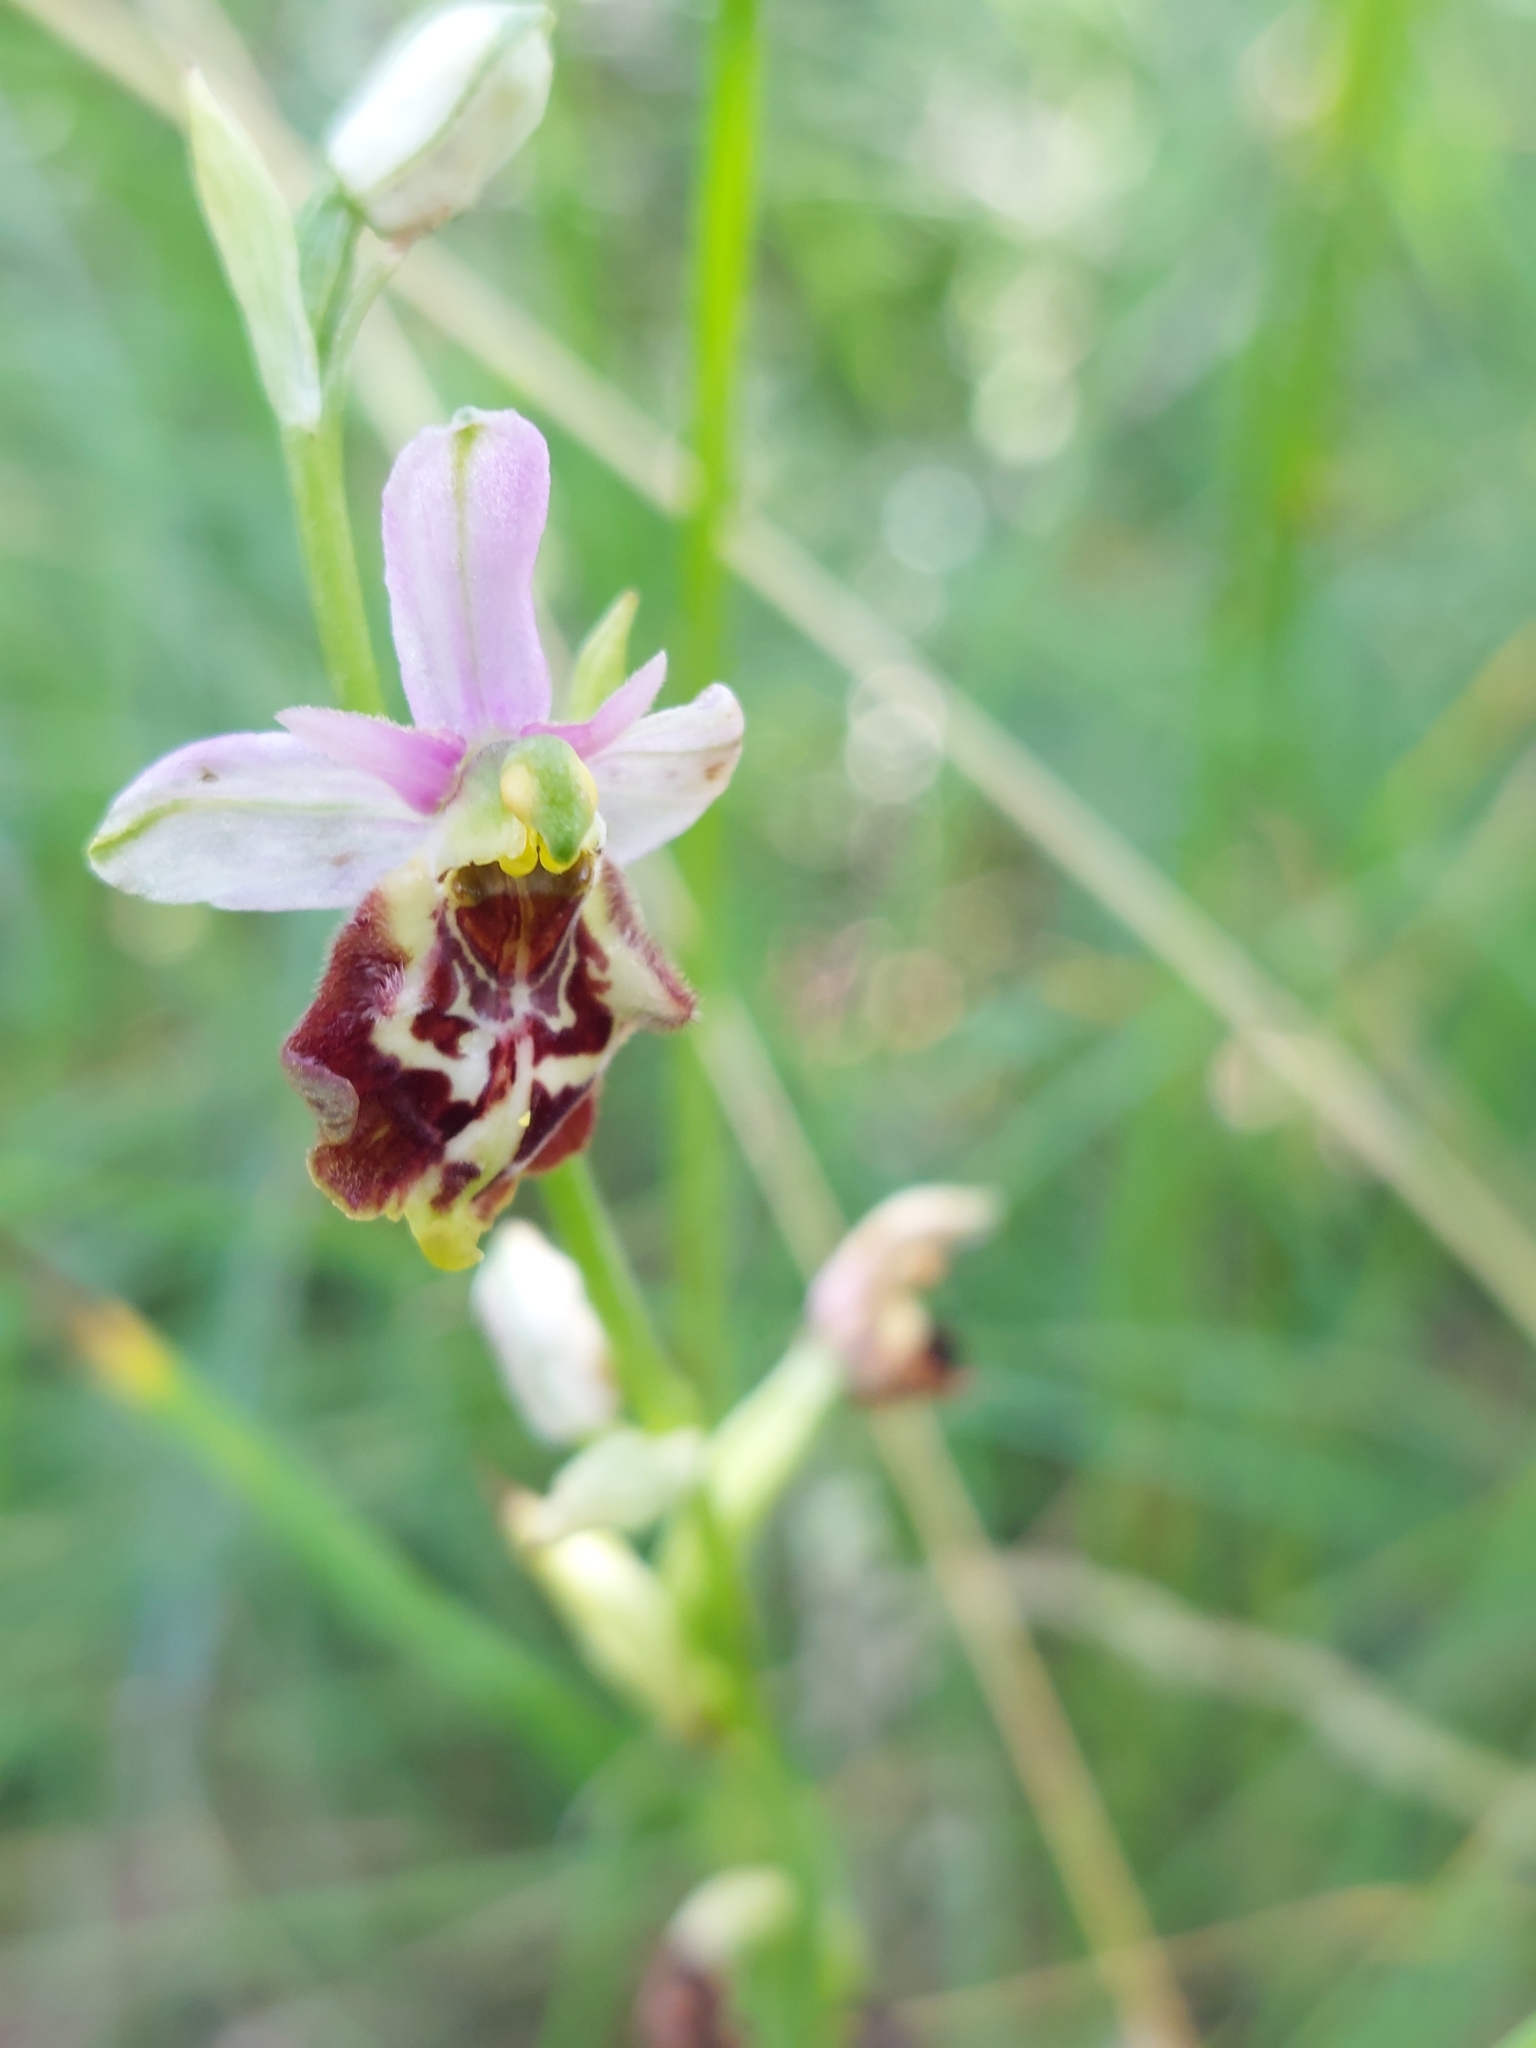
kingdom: Plantae
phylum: Tracheophyta
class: Liliopsida
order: Asparagales
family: Orchidaceae
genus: Ophrys
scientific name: Ophrys holosericea
